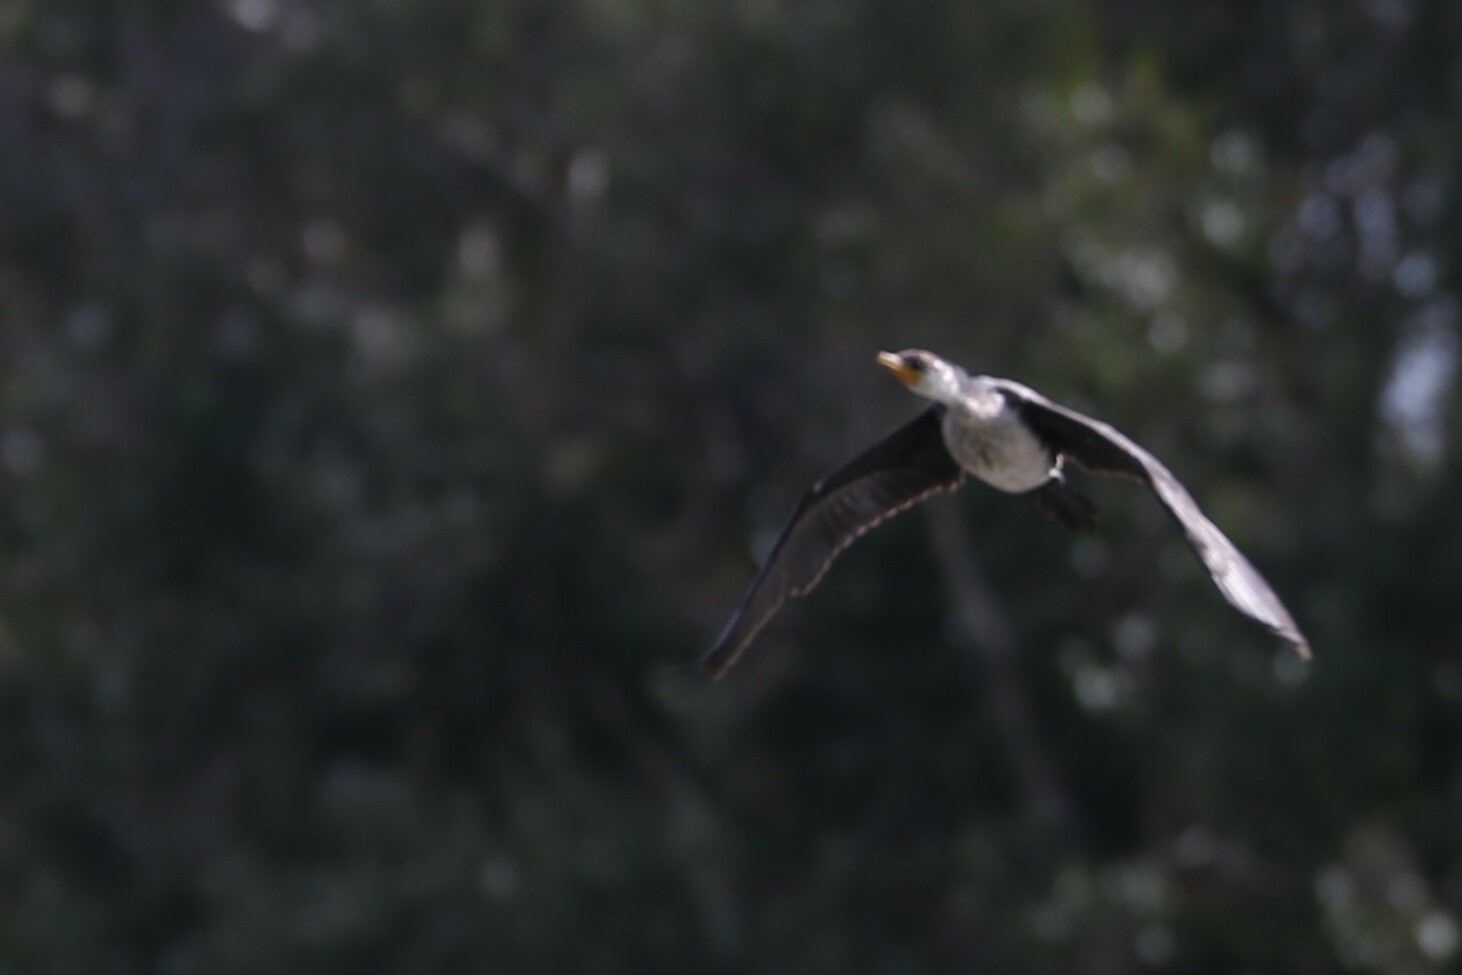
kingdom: Animalia
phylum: Chordata
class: Aves
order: Suliformes
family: Phalacrocoracidae
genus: Microcarbo
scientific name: Microcarbo melanoleucos
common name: Little pied cormorant
